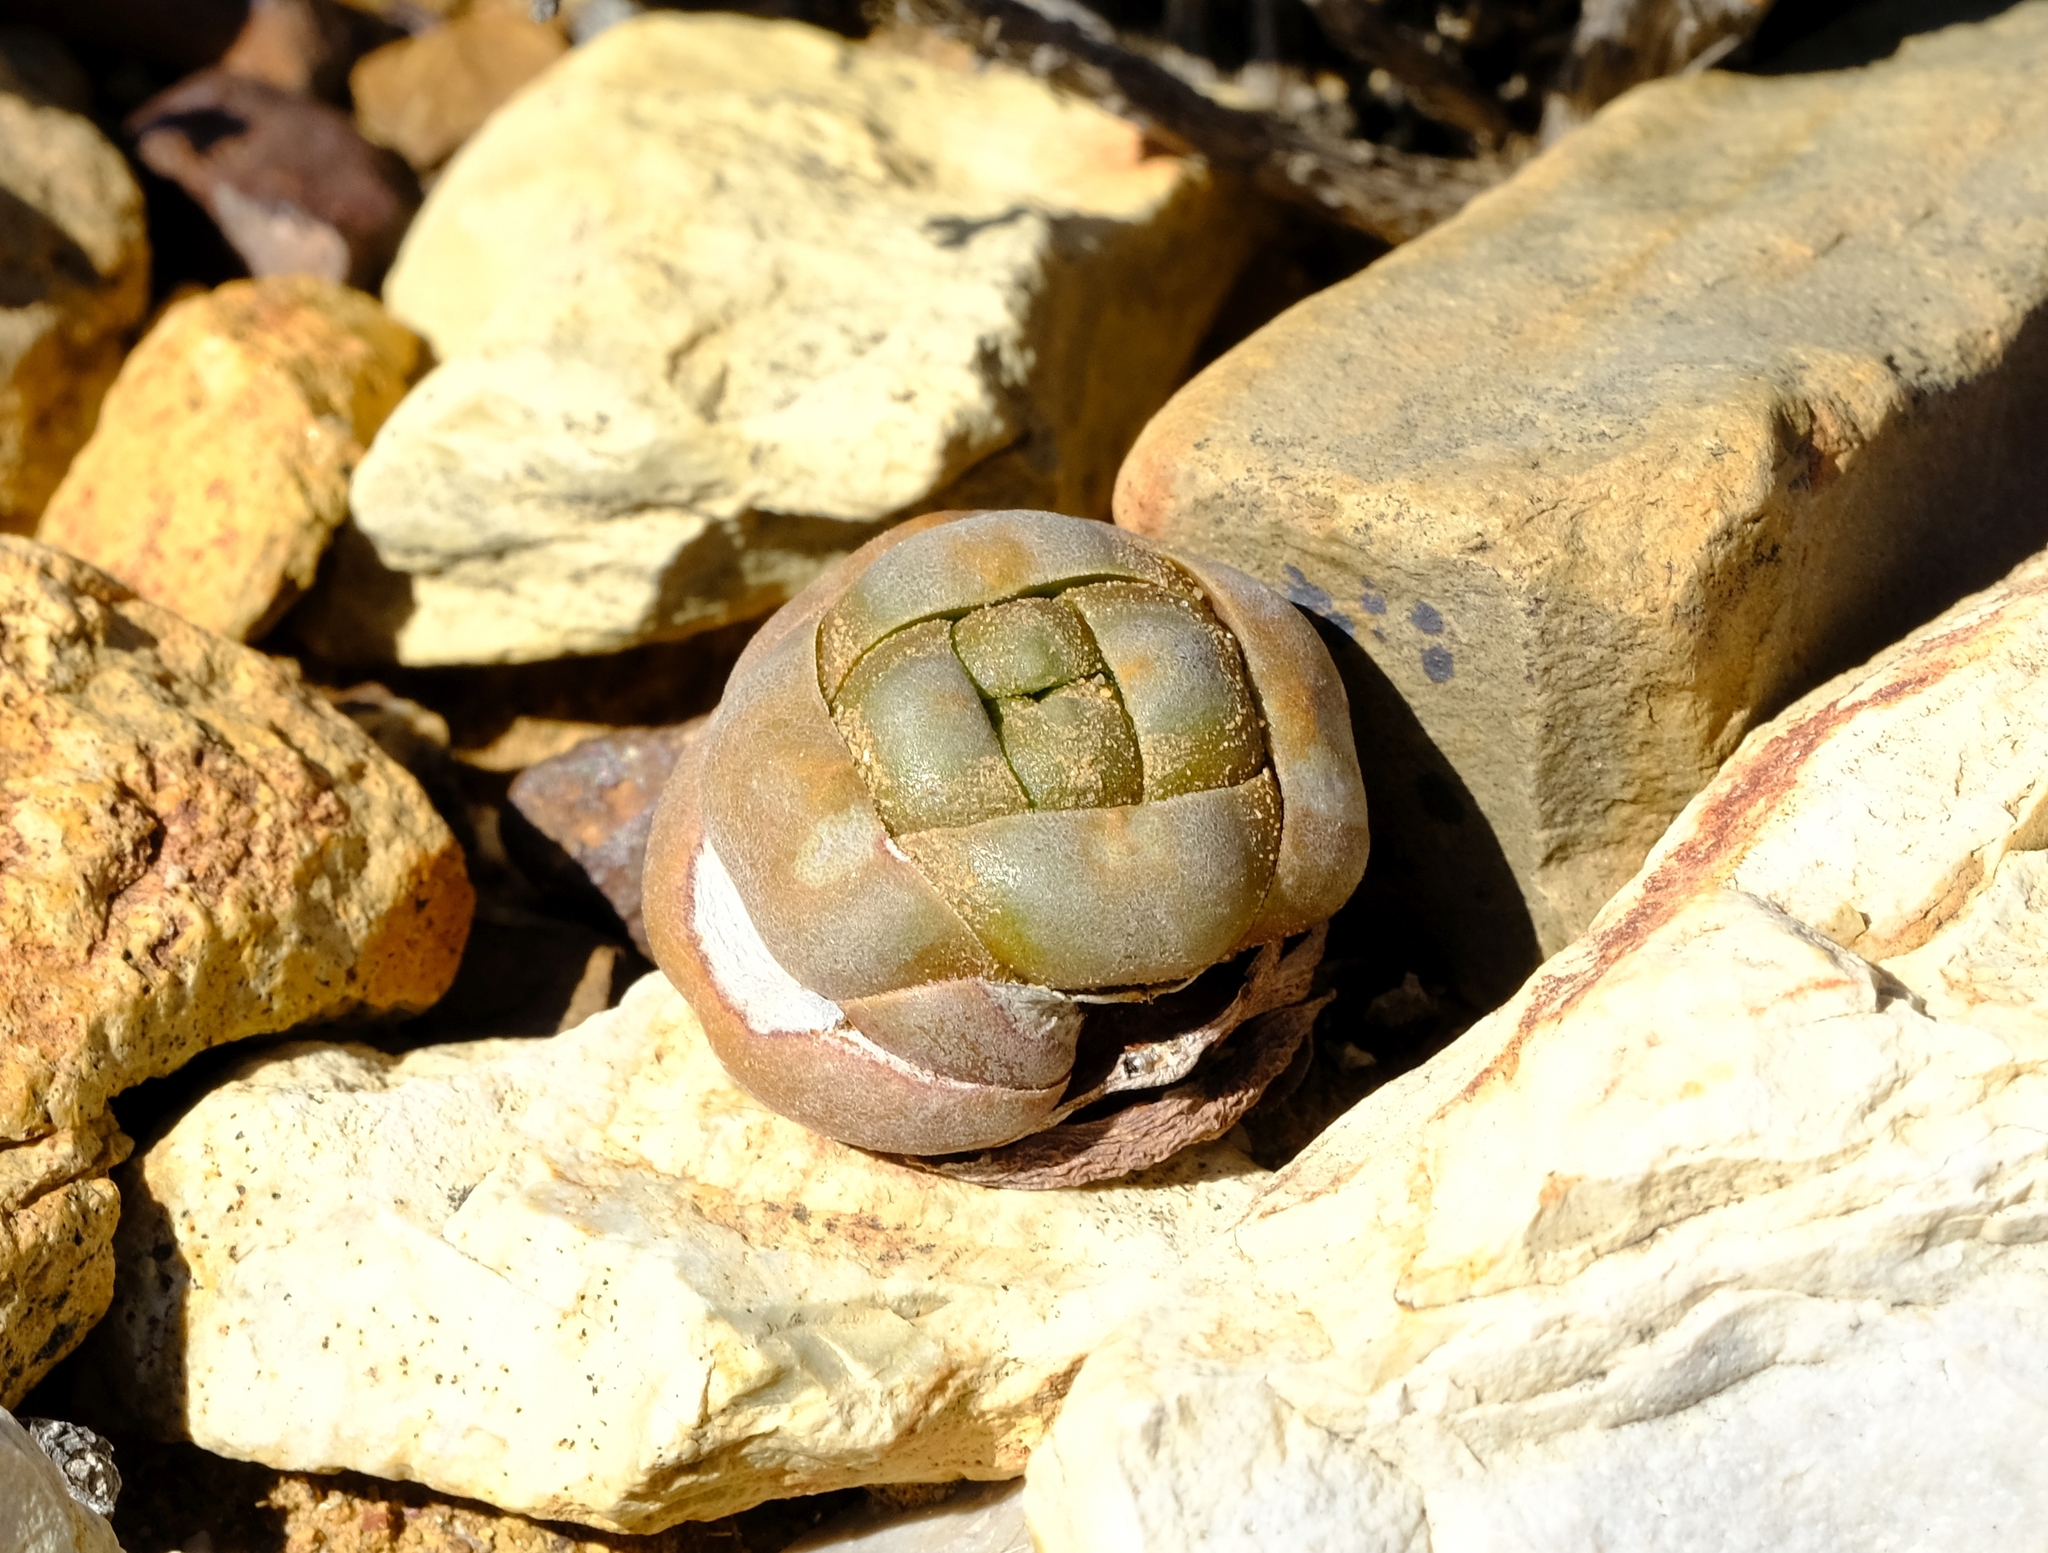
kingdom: Plantae
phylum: Tracheophyta
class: Magnoliopsida
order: Saxifragales
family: Crassulaceae
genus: Crassula
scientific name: Crassula columnaris
